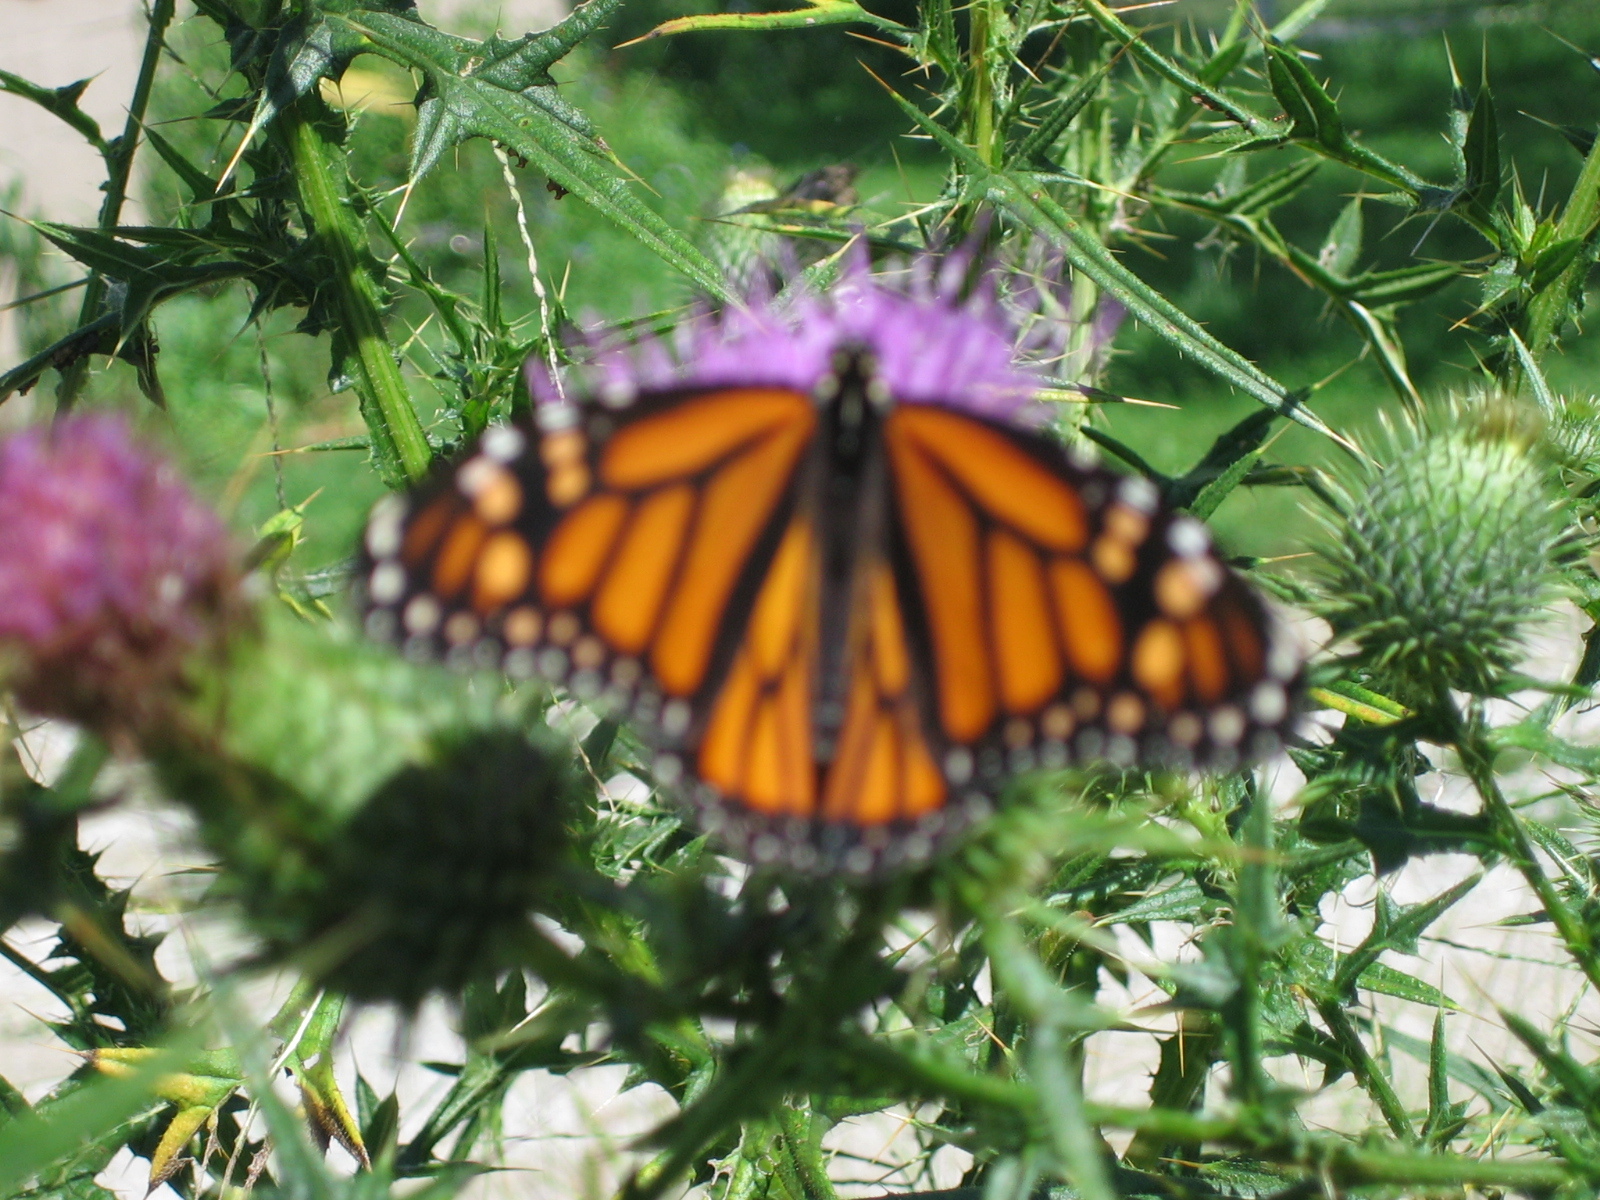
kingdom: Animalia
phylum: Arthropoda
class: Insecta
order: Lepidoptera
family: Nymphalidae
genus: Danaus
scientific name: Danaus plexippus
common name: Monarch
